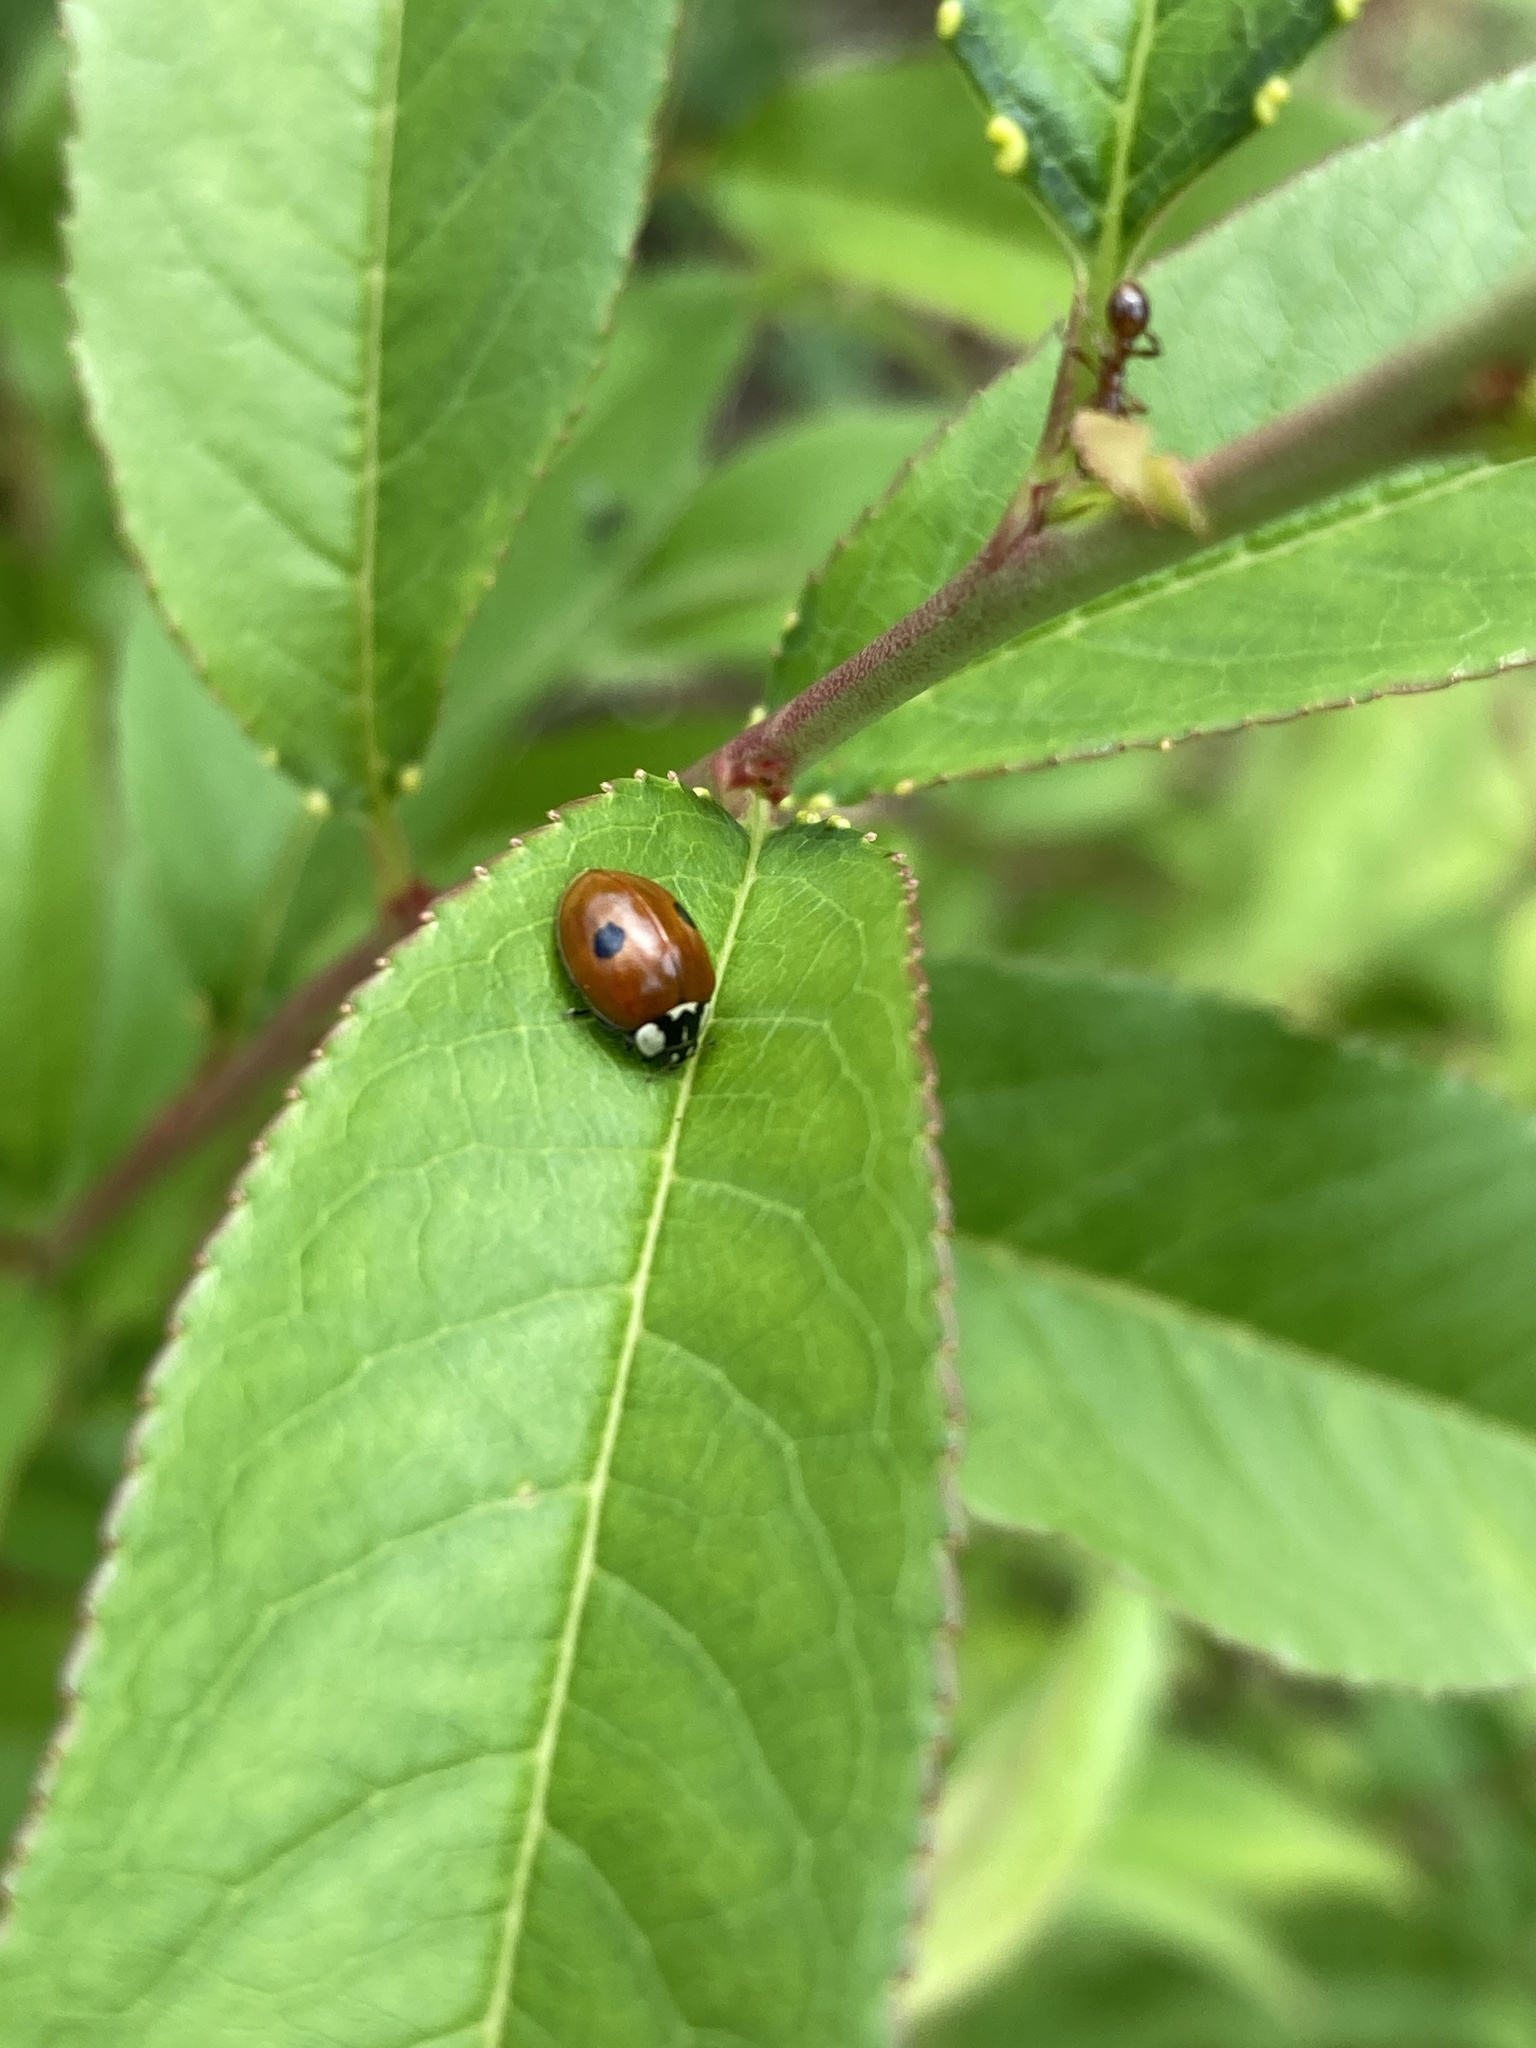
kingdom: Animalia
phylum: Arthropoda
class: Insecta
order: Coleoptera
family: Coccinellidae
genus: Adalia
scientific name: Adalia bipunctata
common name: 2-spot ladybird
